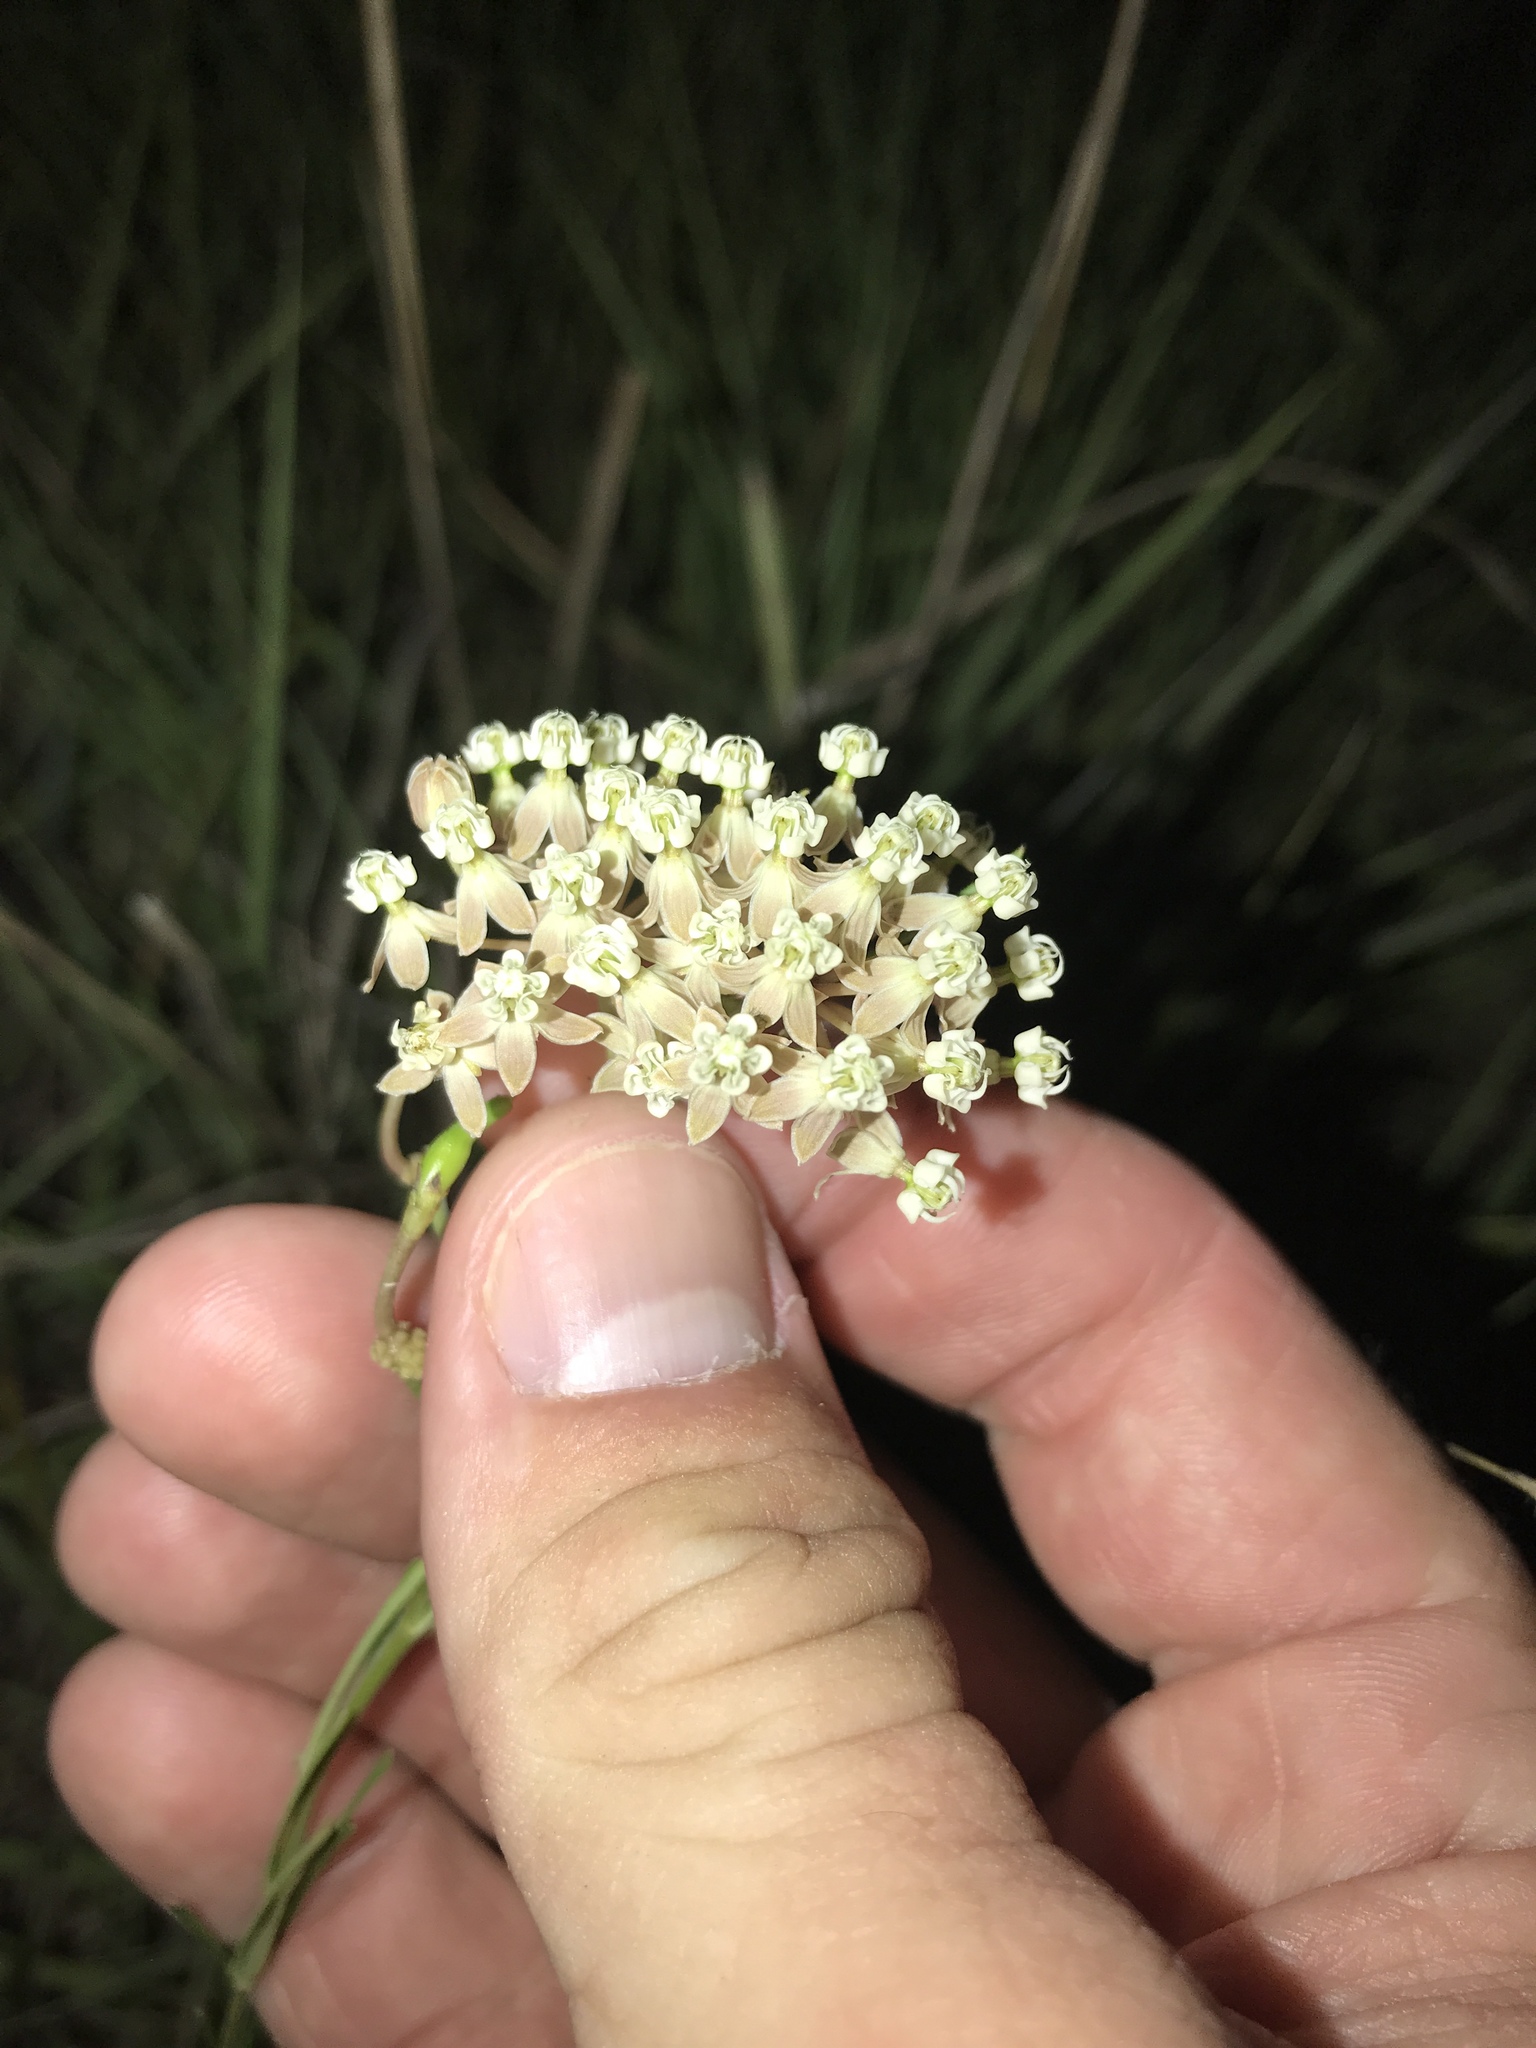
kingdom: Plantae
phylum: Tracheophyta
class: Magnoliopsida
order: Gentianales
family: Apocynaceae
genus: Asclepias
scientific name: Asclepias verticillata
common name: Eastern whorled milkweed
